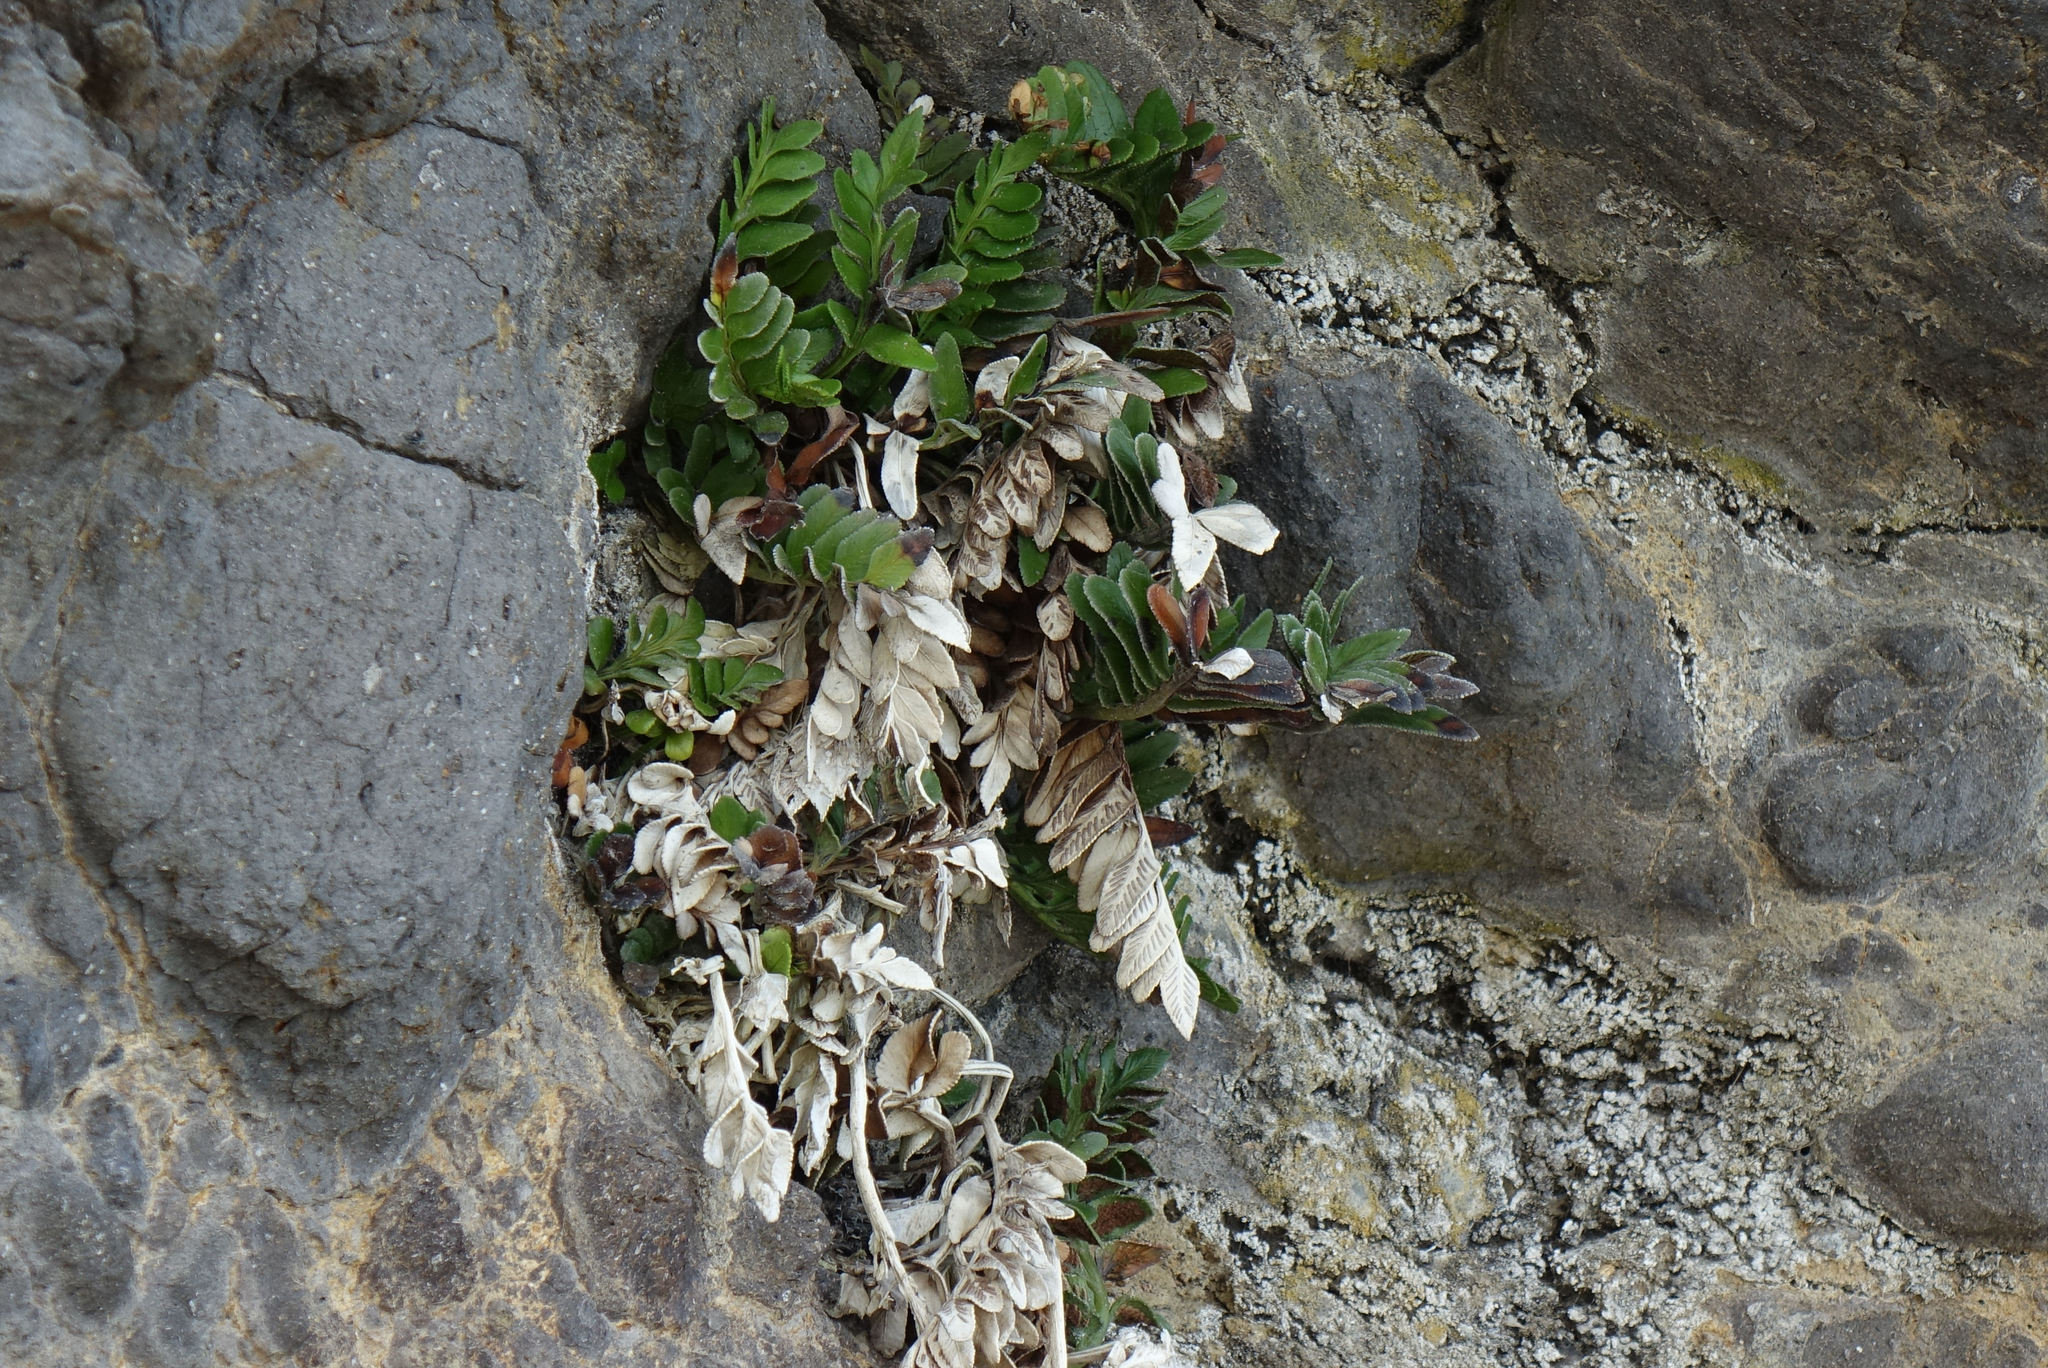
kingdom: Plantae
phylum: Tracheophyta
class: Polypodiopsida
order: Polypodiales
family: Aspleniaceae
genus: Asplenium
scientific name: Asplenium obtusatum
